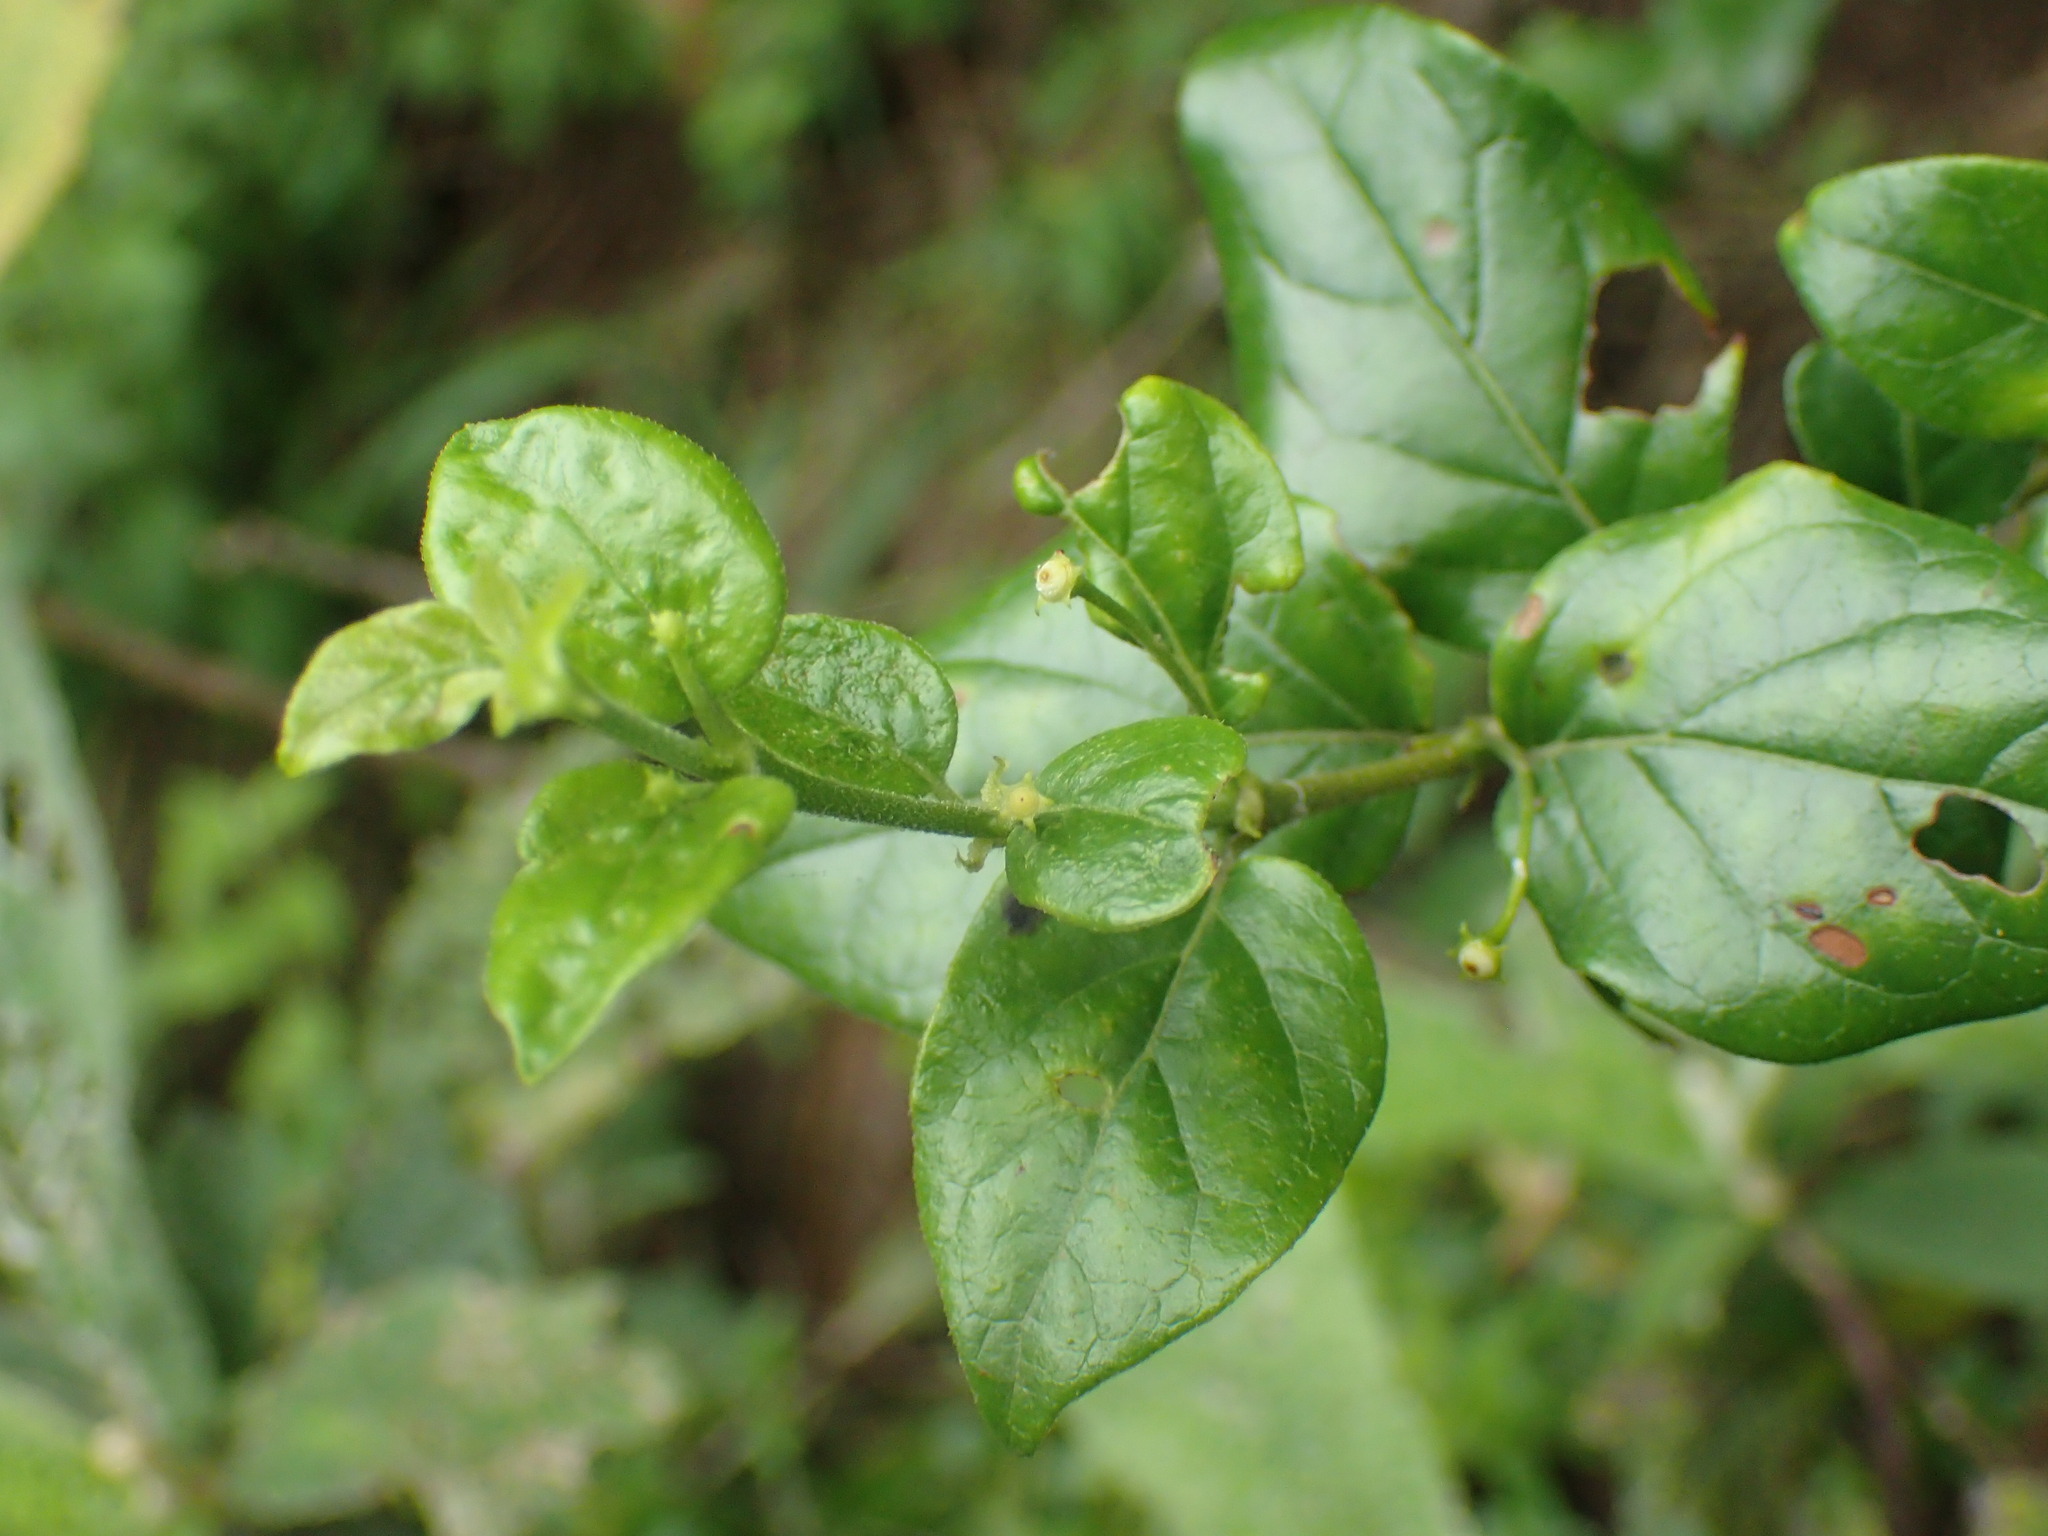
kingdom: Plantae
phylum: Tracheophyta
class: Magnoliopsida
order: Gentianales
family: Rubiaceae
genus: Afrocanthium
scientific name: Afrocanthium mundianum
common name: Rock-alder
